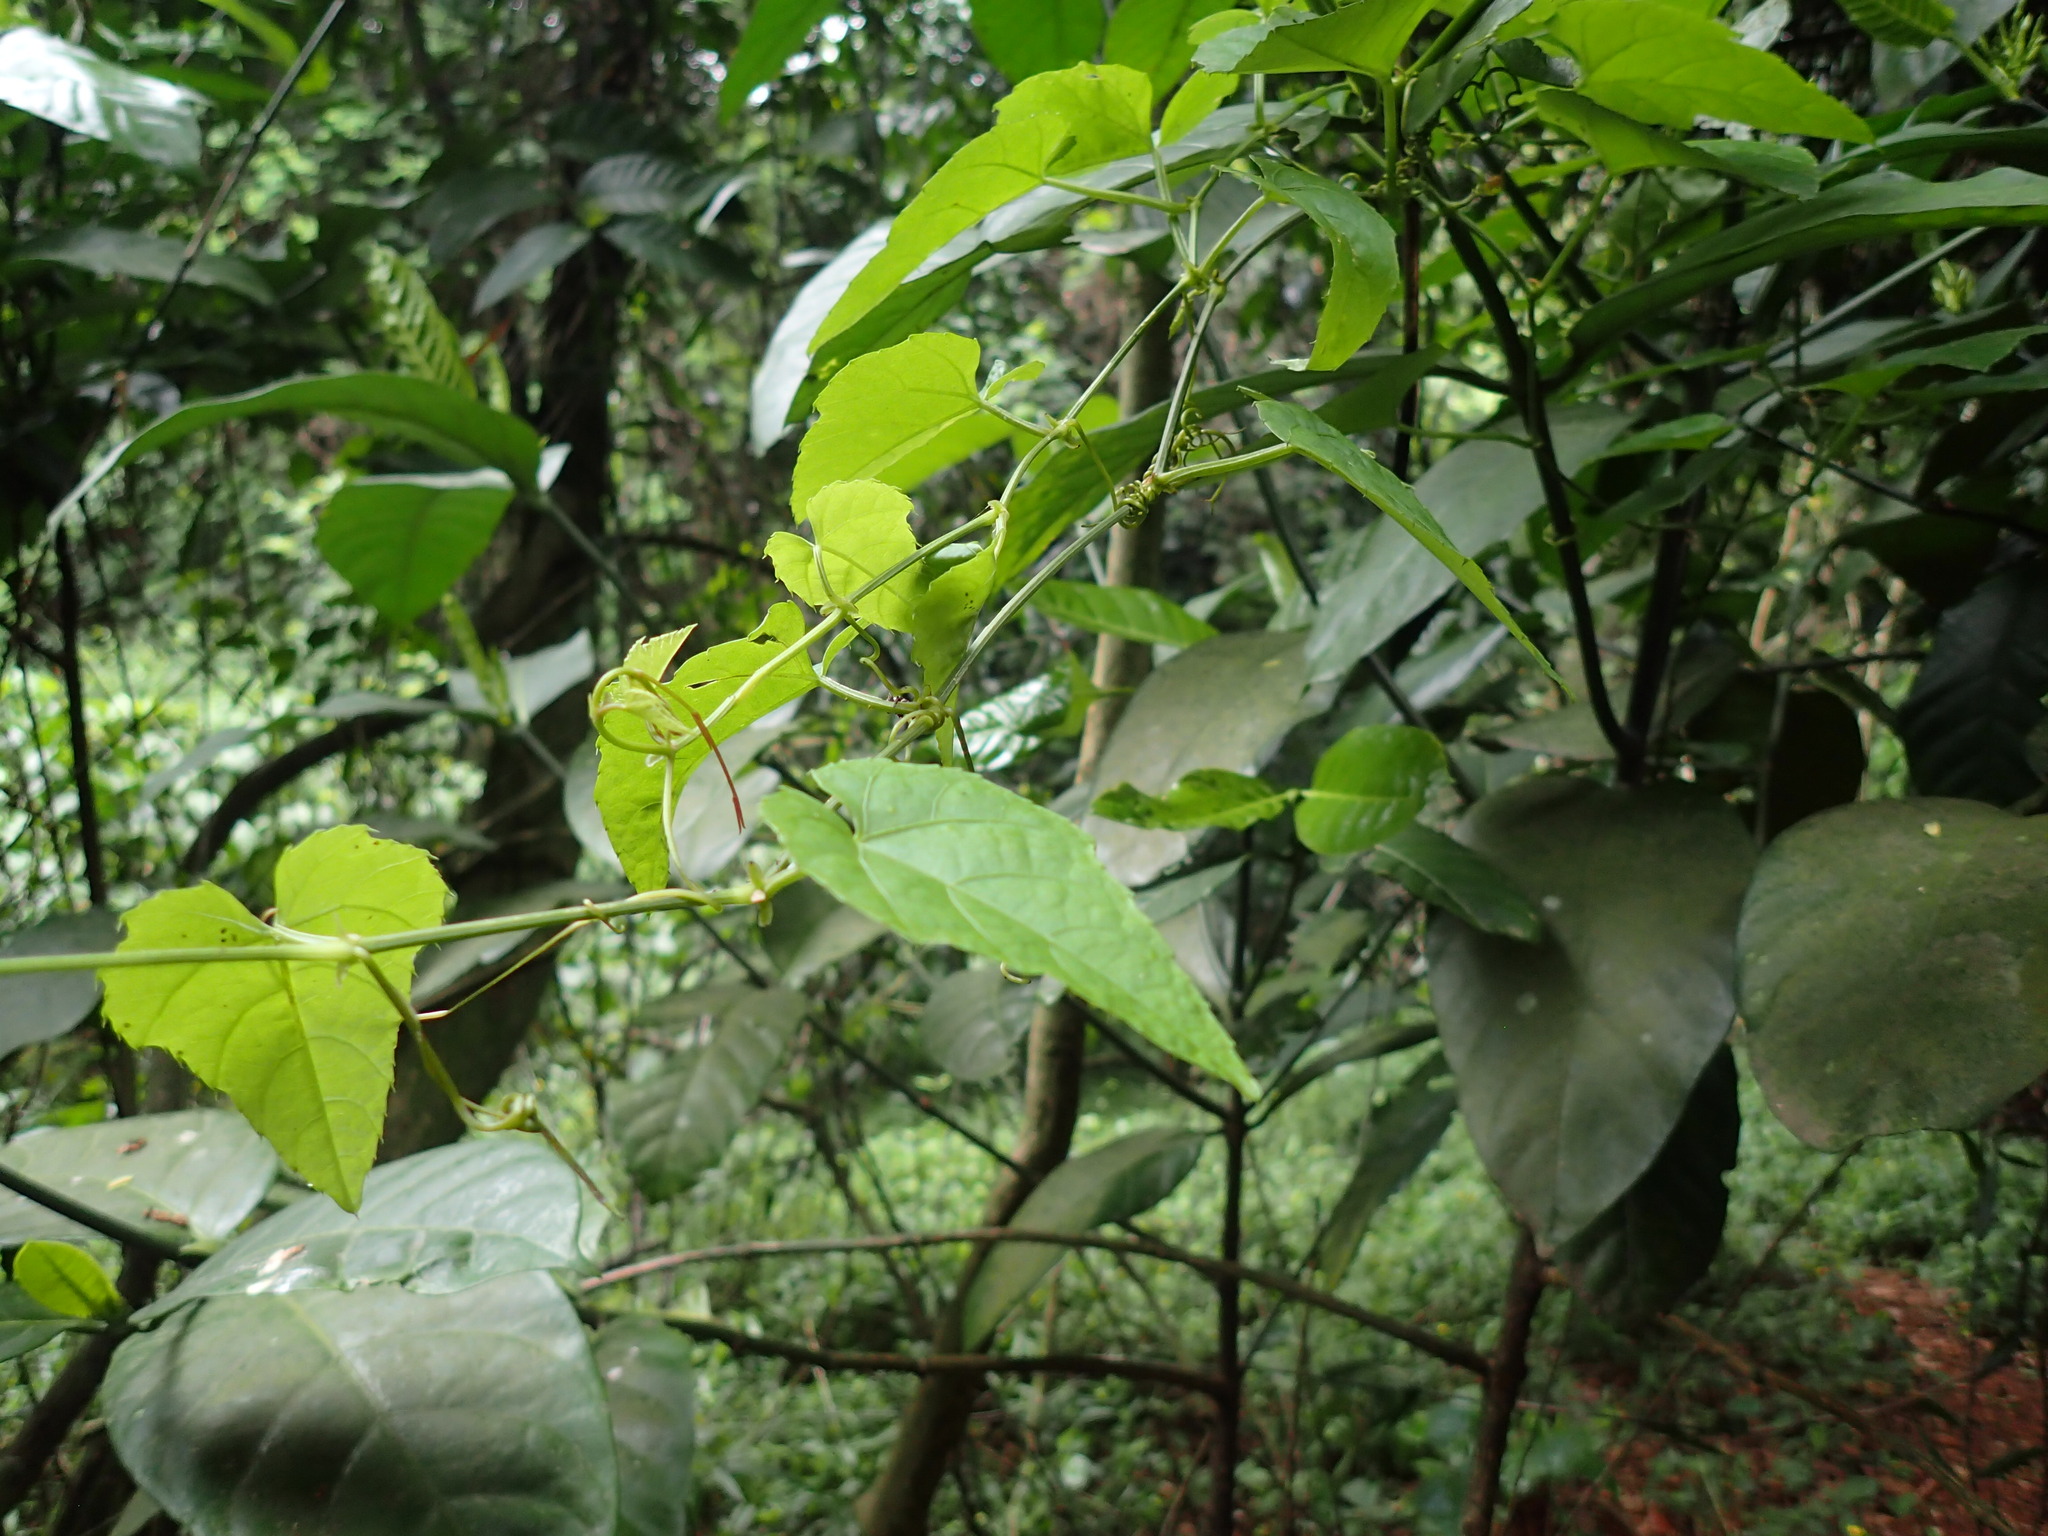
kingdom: Plantae
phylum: Tracheophyta
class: Magnoliopsida
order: Vitales
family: Vitaceae
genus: Cissus
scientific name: Cissus fragilis
